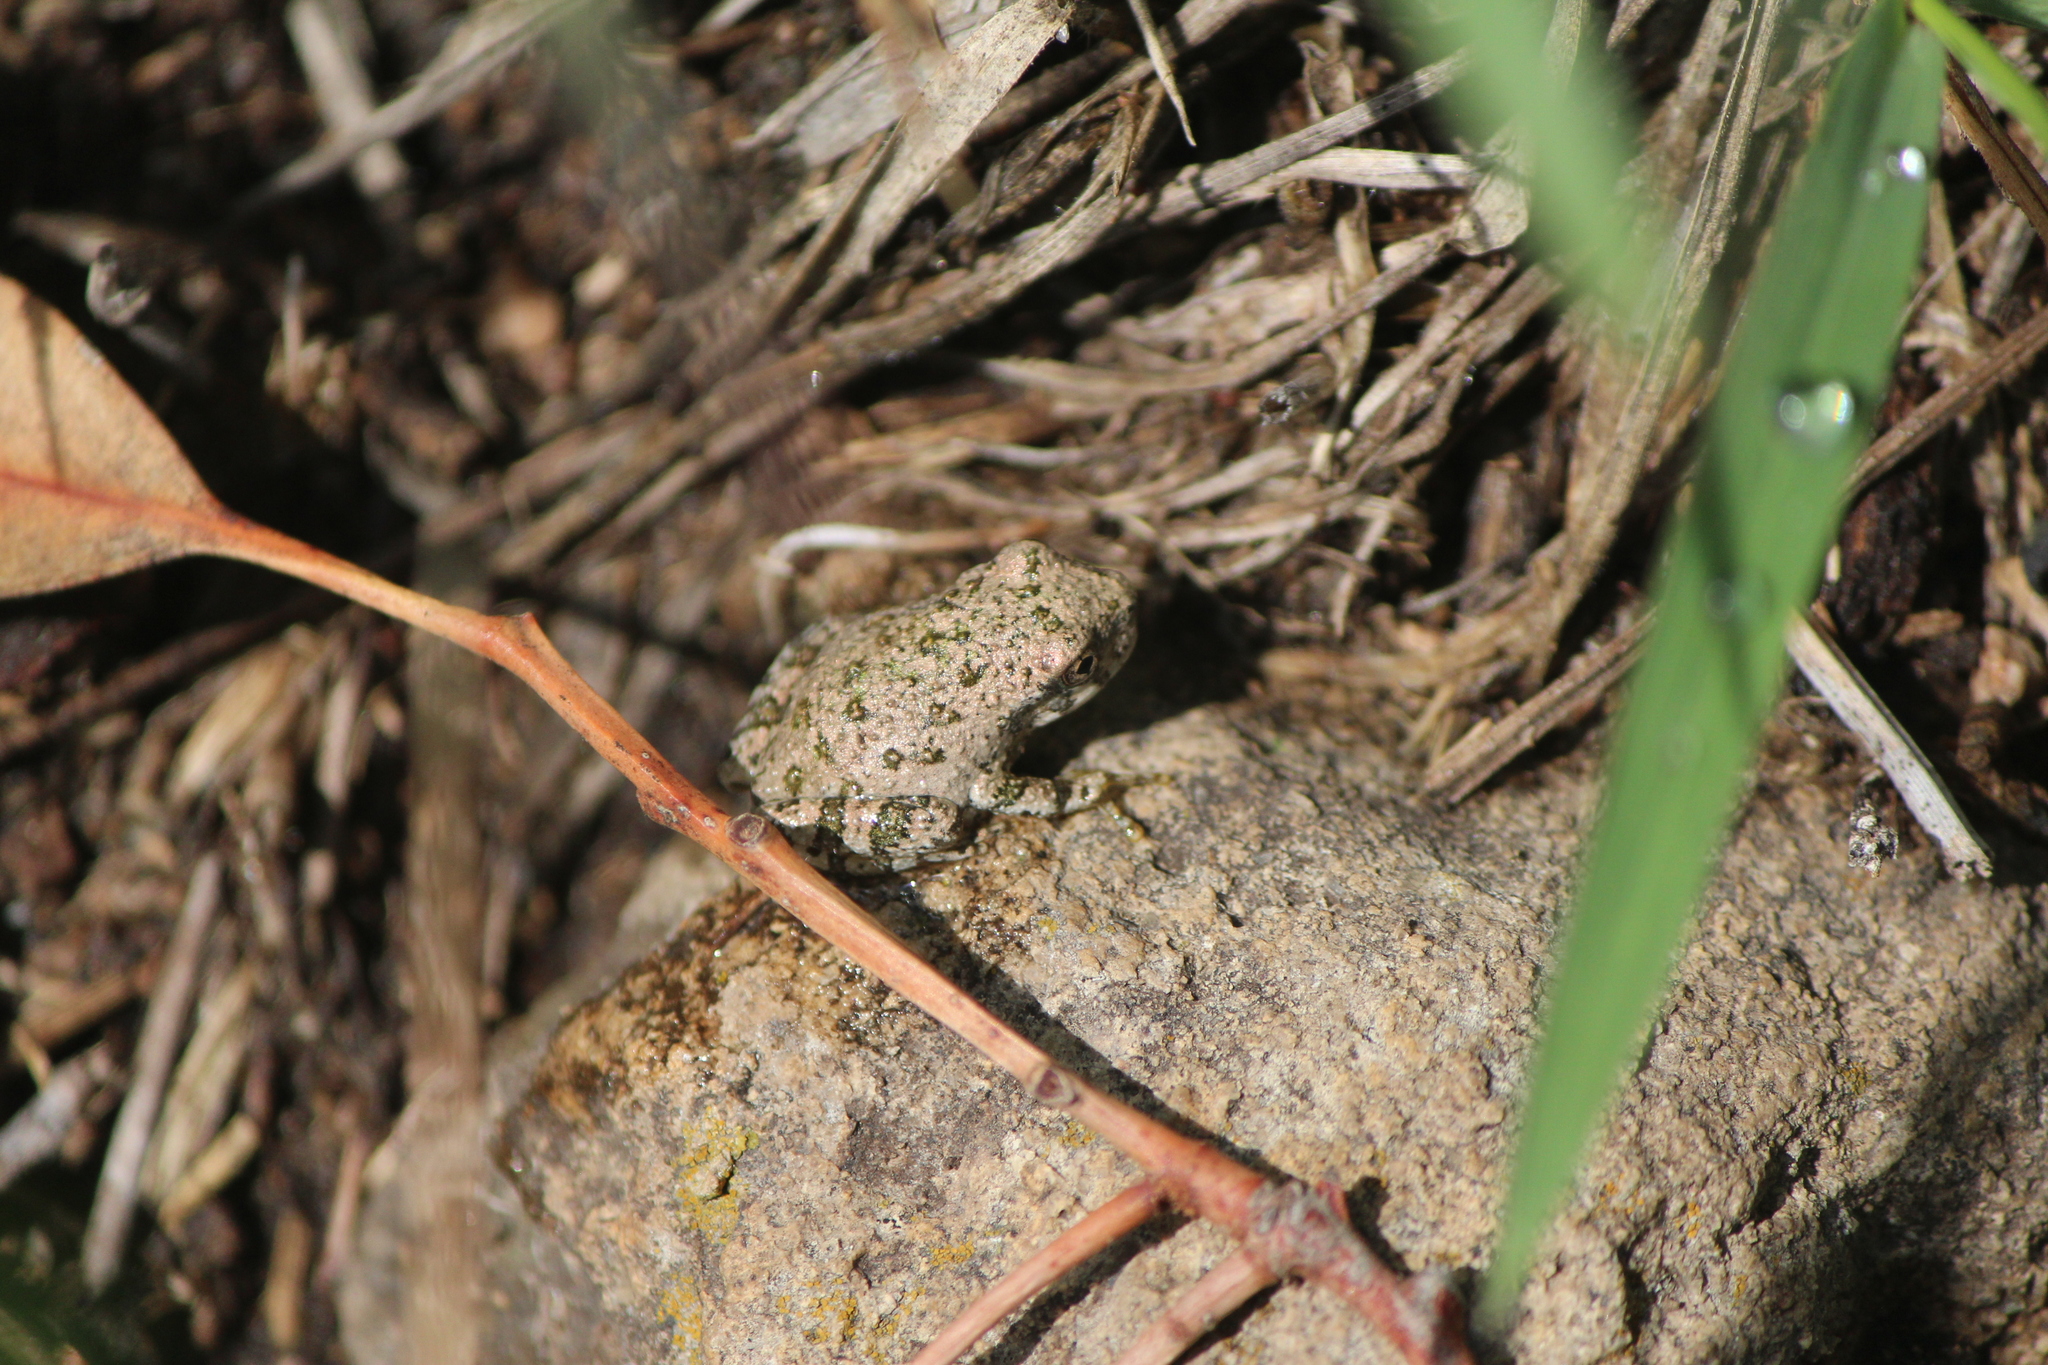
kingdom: Animalia
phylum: Chordata
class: Amphibia
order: Anura
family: Hylidae
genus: Dryophytes
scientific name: Dryophytes arenicolor
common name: Canyon treefrog
